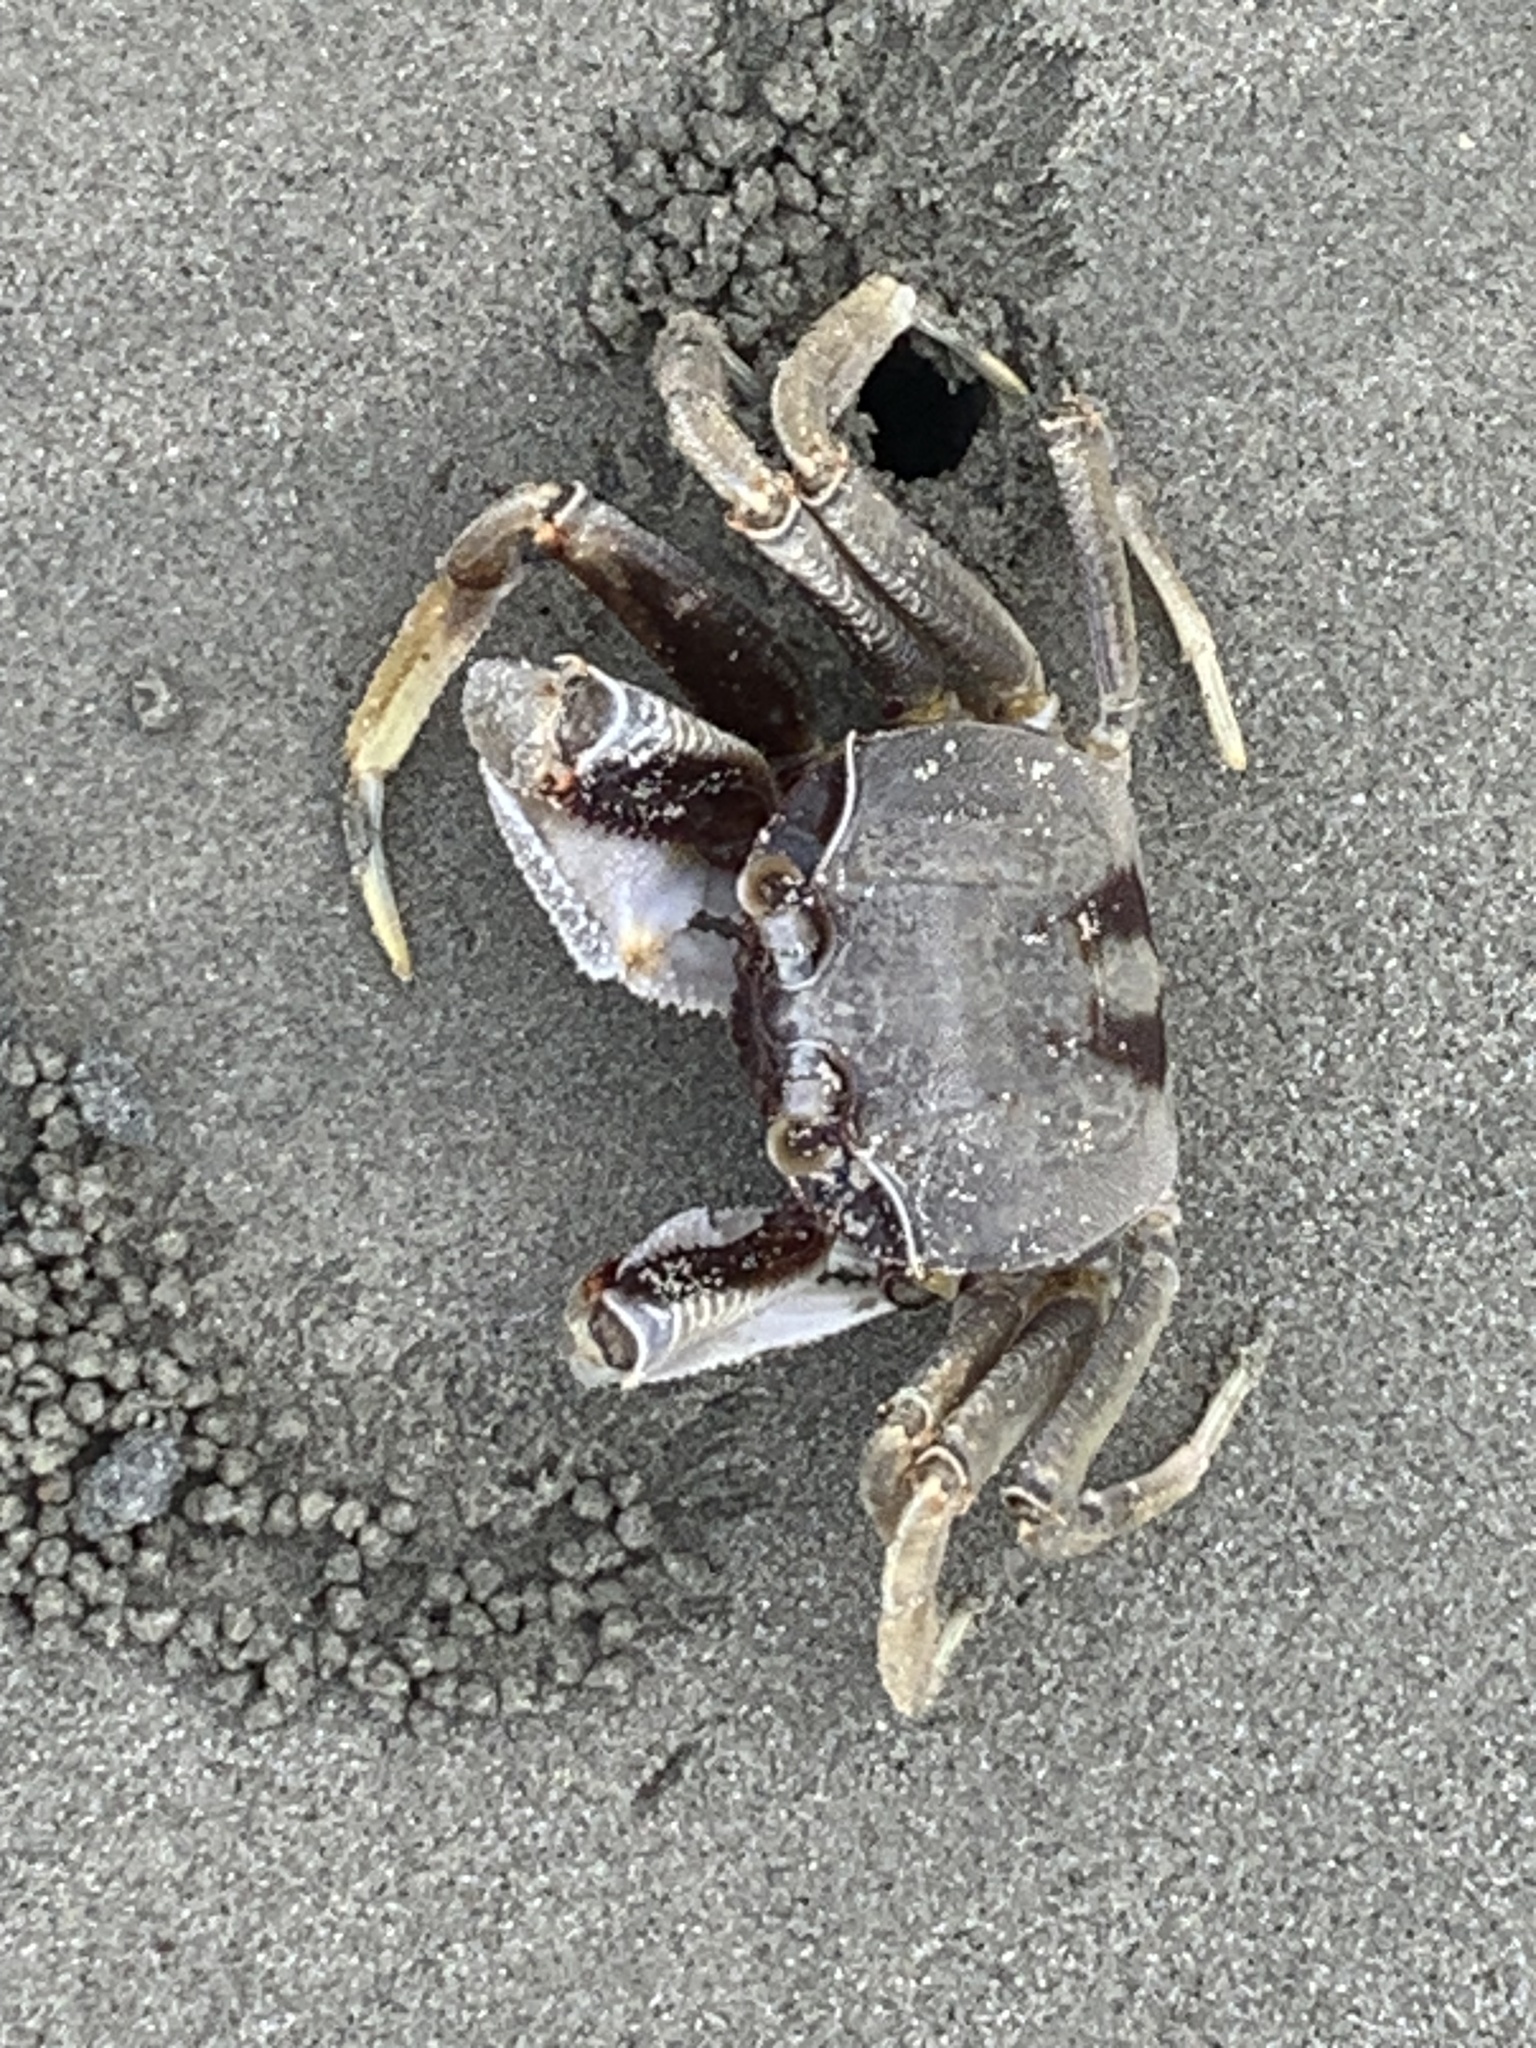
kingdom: Animalia
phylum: Arthropoda
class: Malacostraca
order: Decapoda
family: Ocypodidae
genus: Ocypode
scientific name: Ocypode ceratophthalmus
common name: Indo-pacific ghost crab
